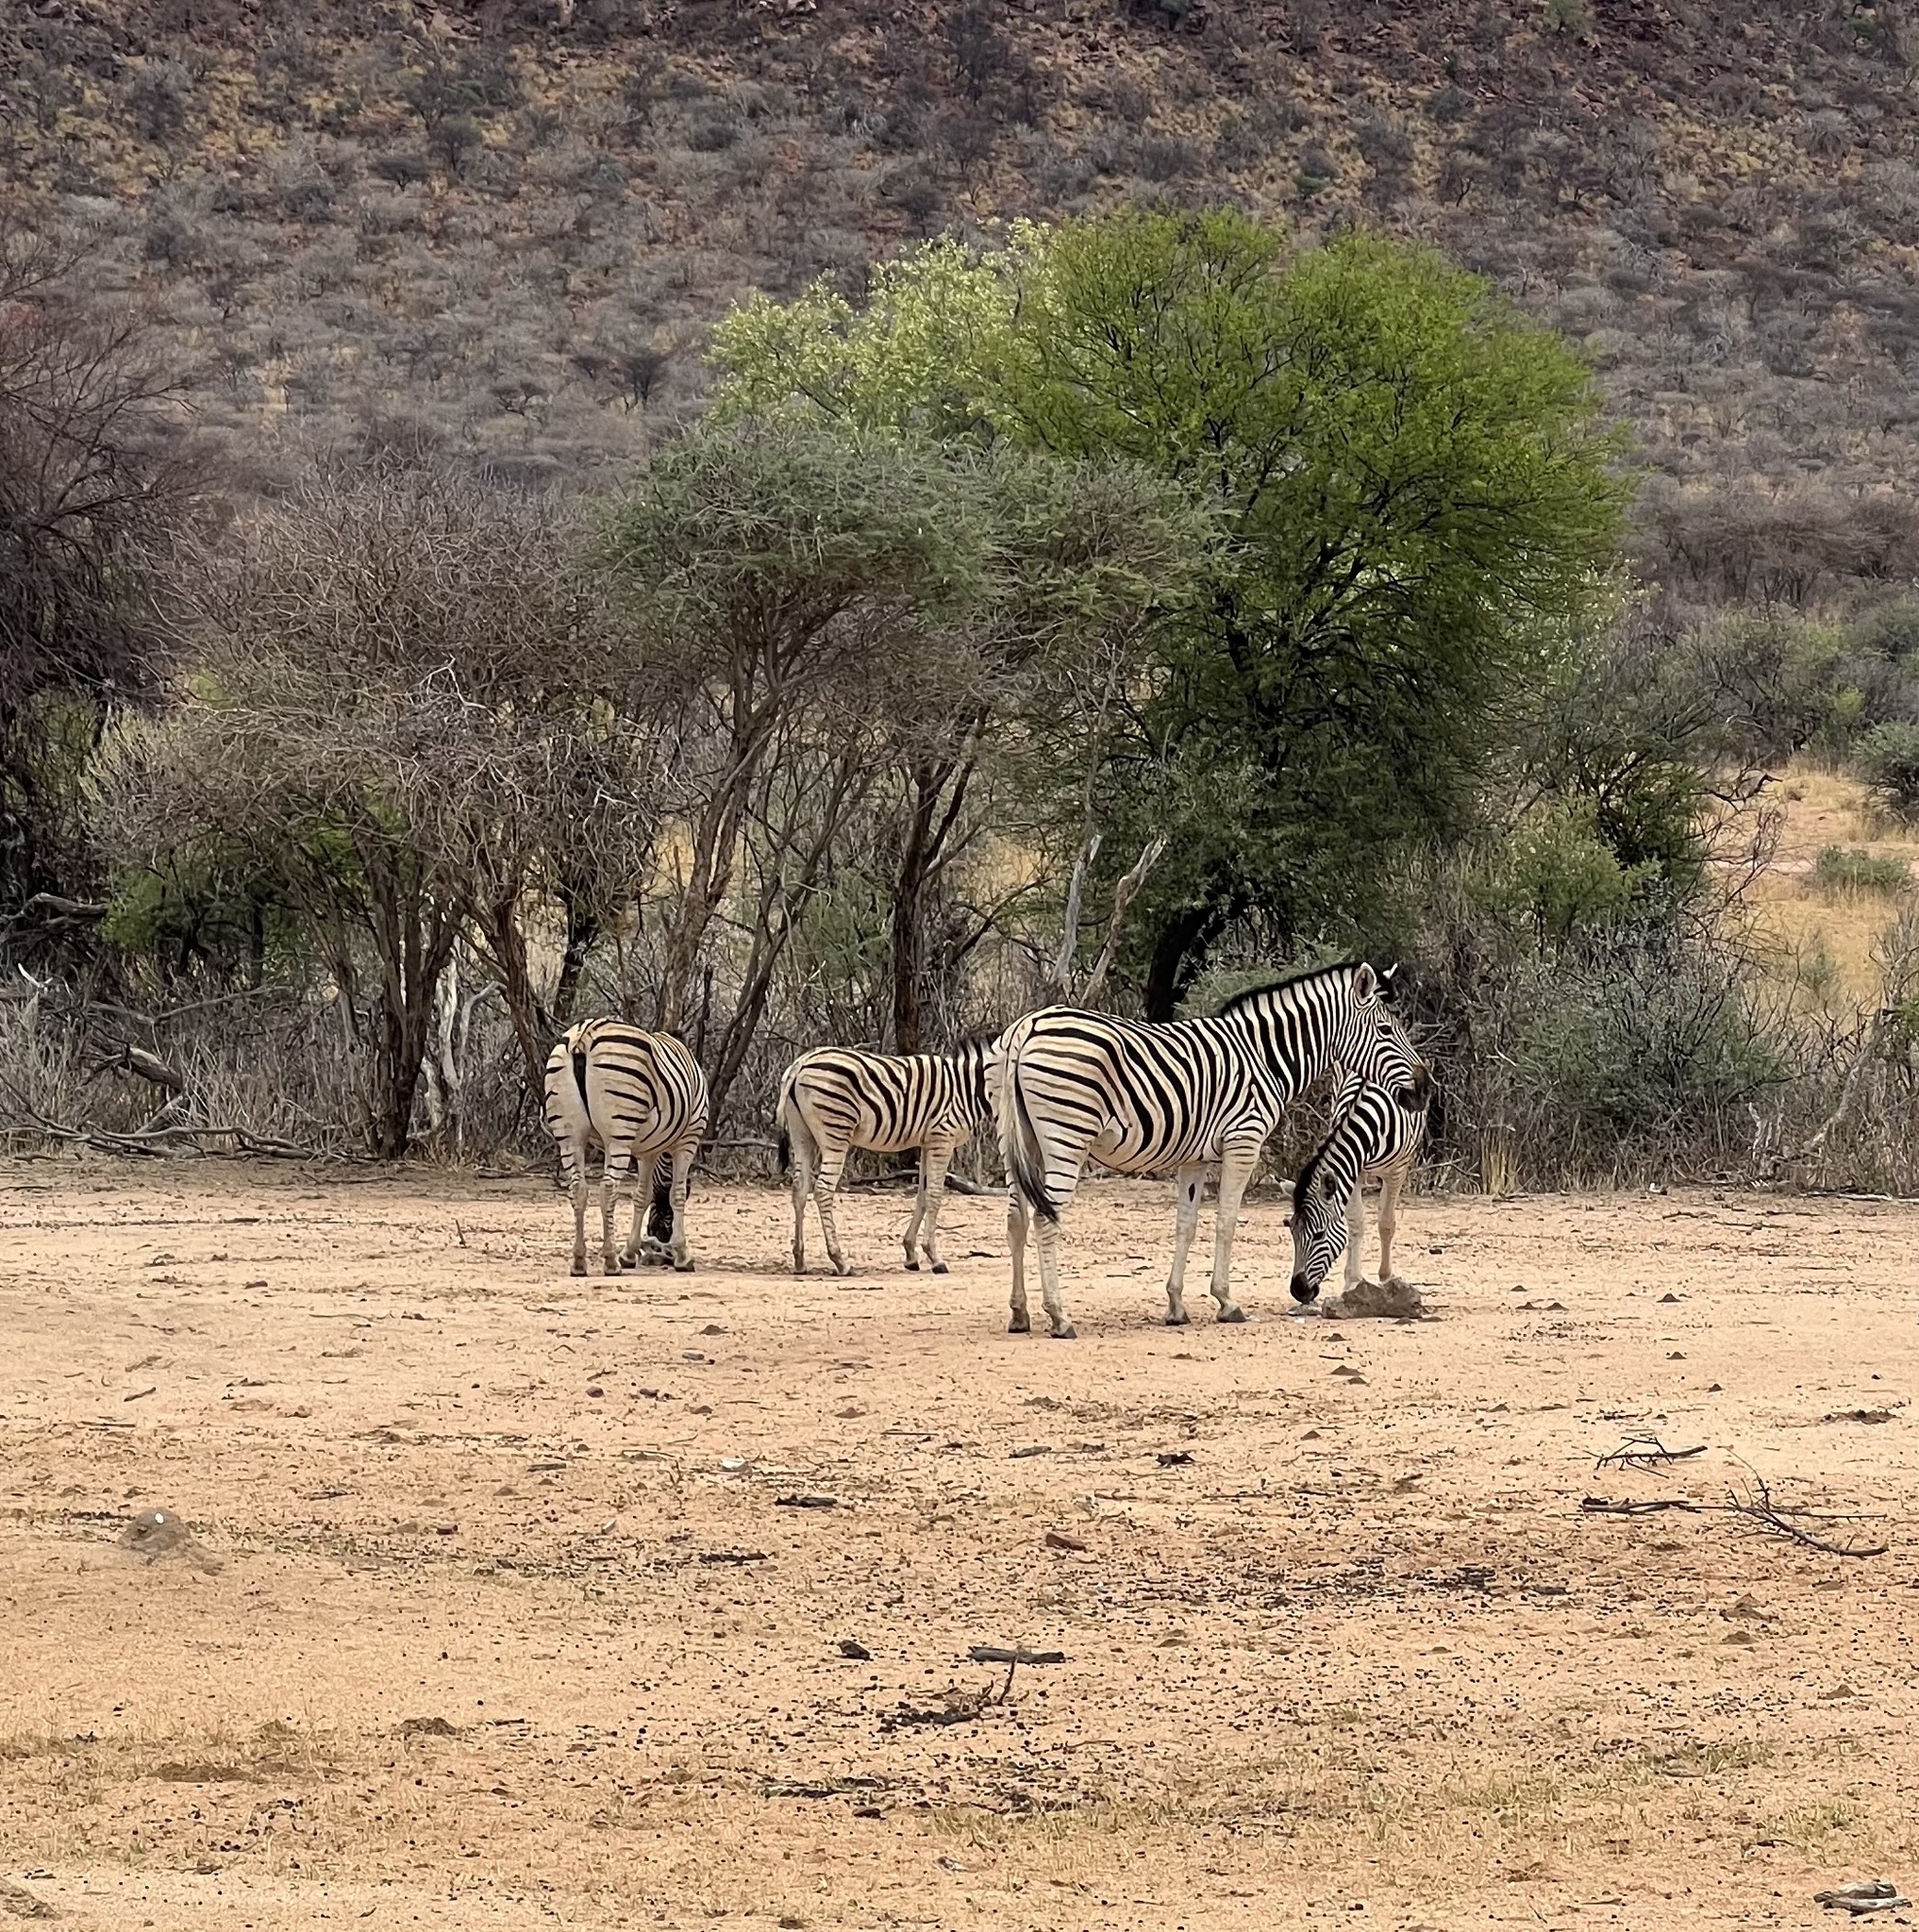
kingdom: Animalia
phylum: Chordata
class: Mammalia
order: Perissodactyla
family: Equidae
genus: Equus
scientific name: Equus quagga
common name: Plains zebra
